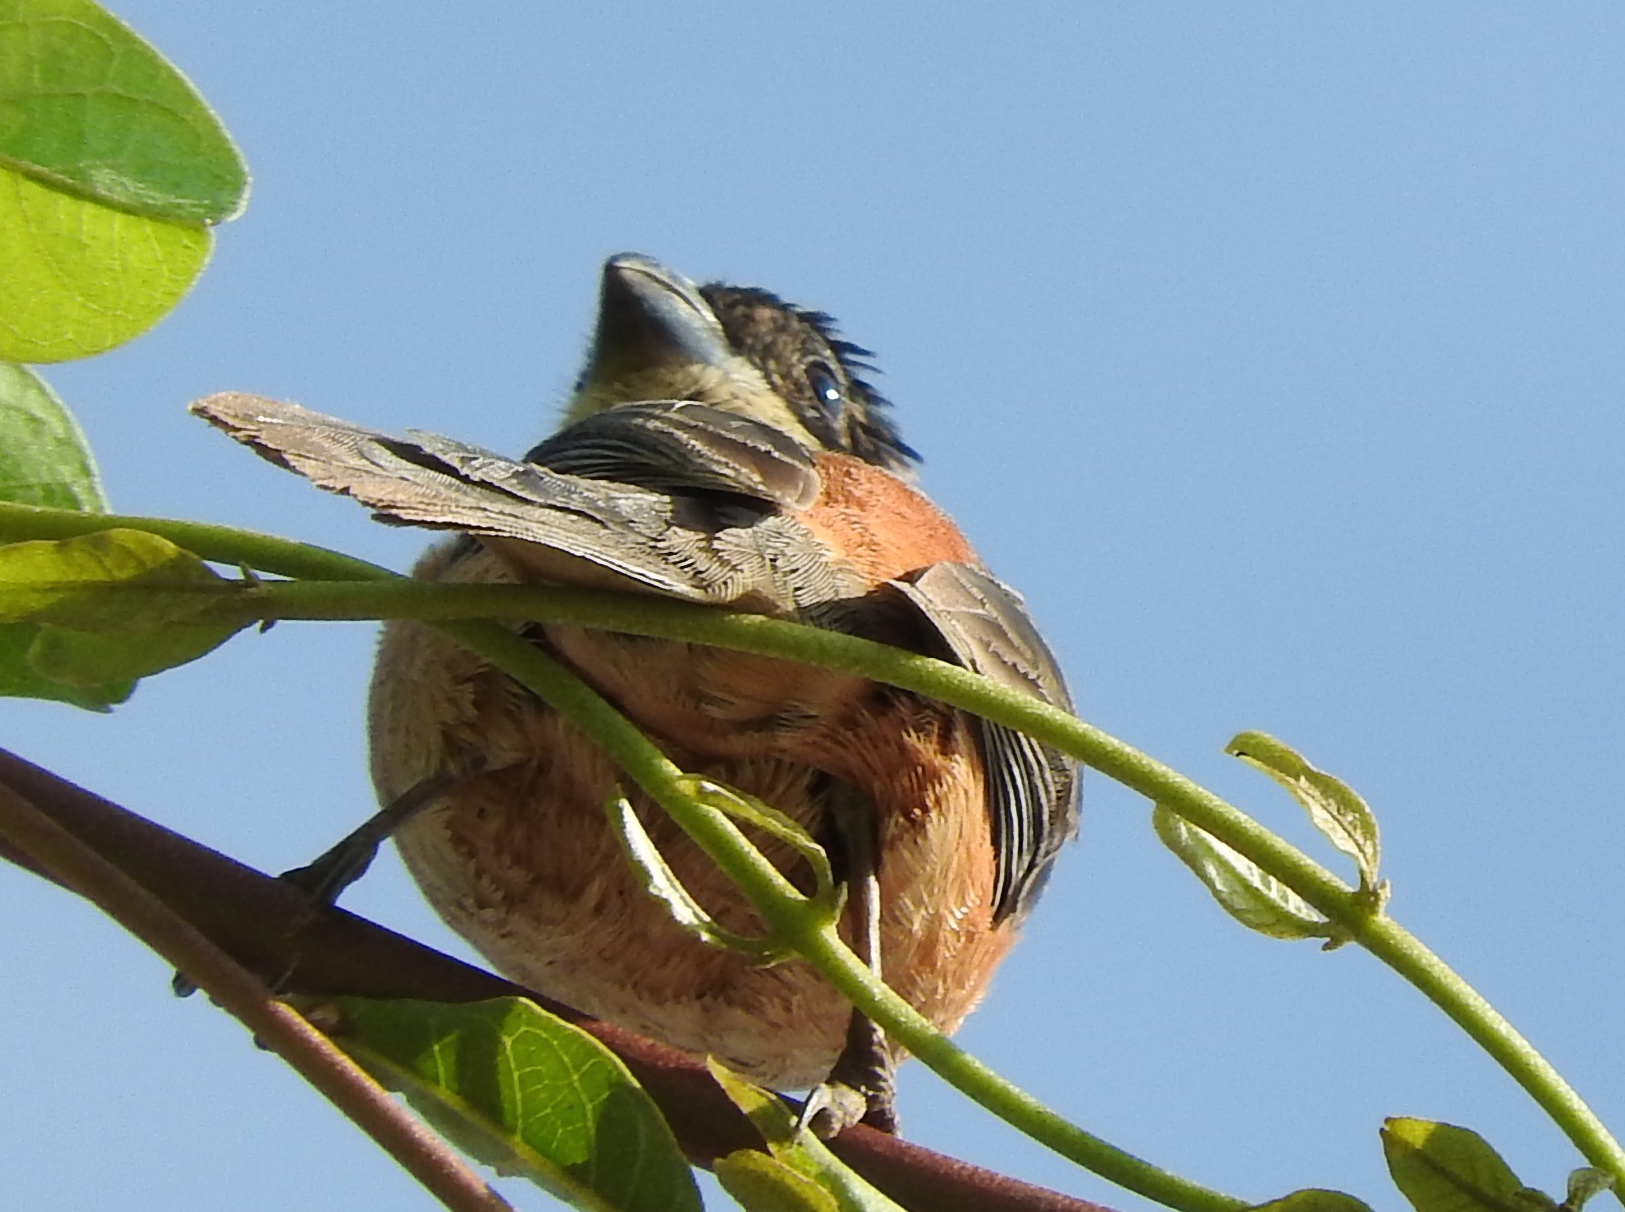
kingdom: Animalia
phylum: Chordata
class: Aves
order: Passeriformes
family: Thraupidae
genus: Sporophila
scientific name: Sporophila torqueola
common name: White-collared seedeater
